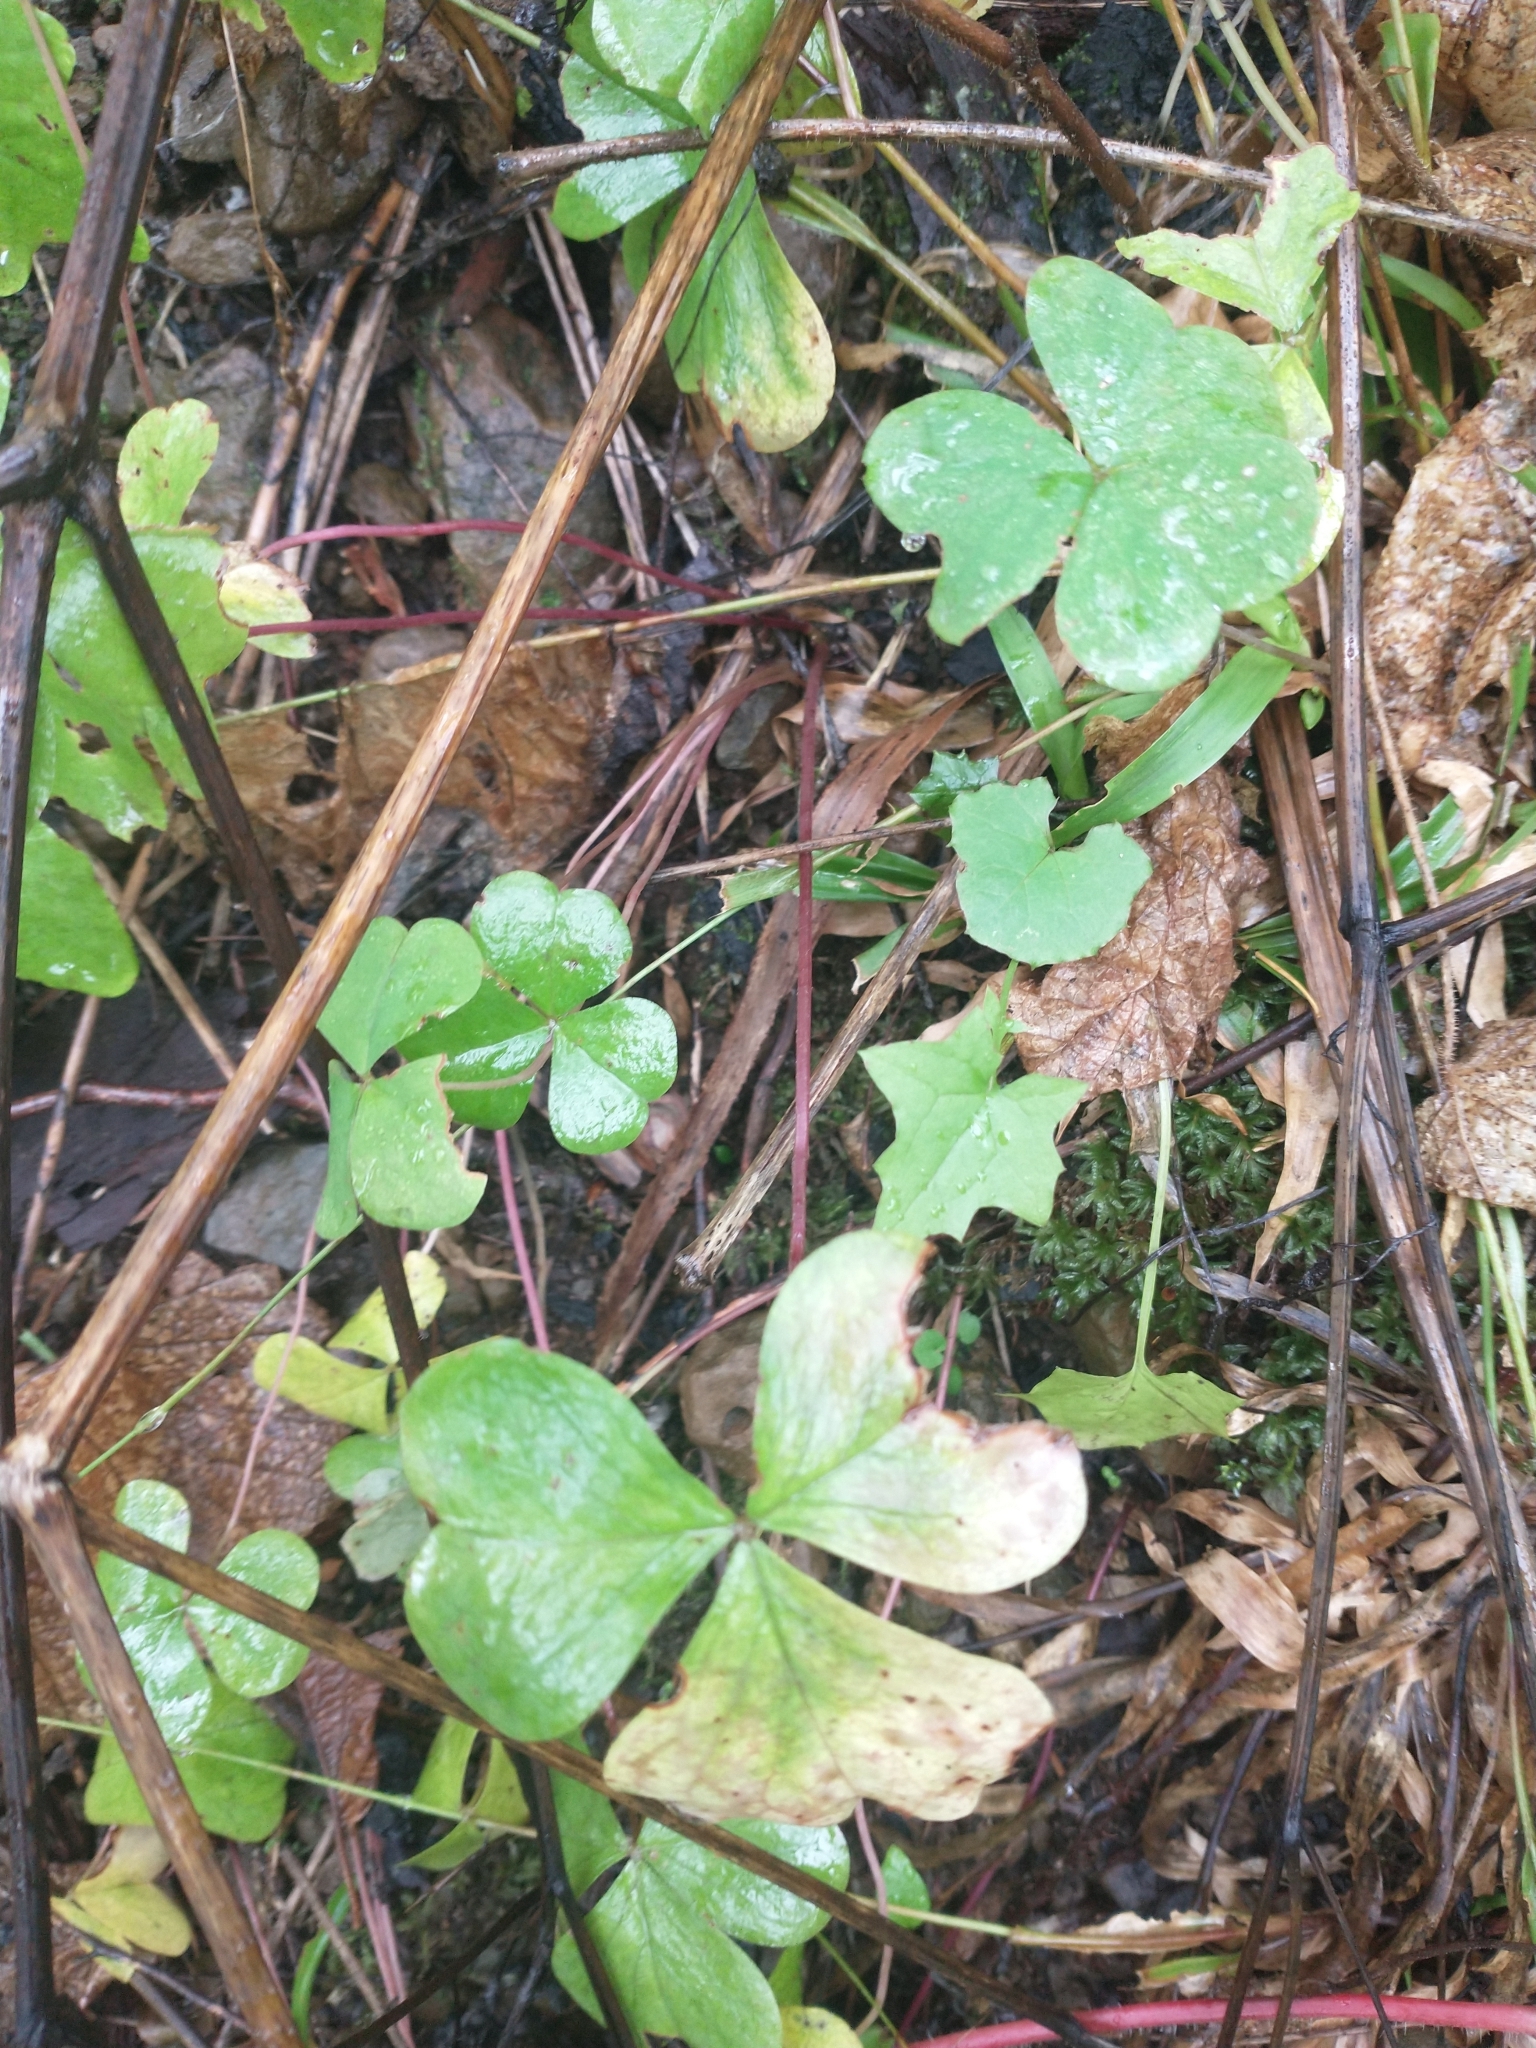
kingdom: Plantae
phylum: Tracheophyta
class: Magnoliopsida
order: Oxalidales
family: Oxalidaceae
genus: Oxalis
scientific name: Oxalis oregana
